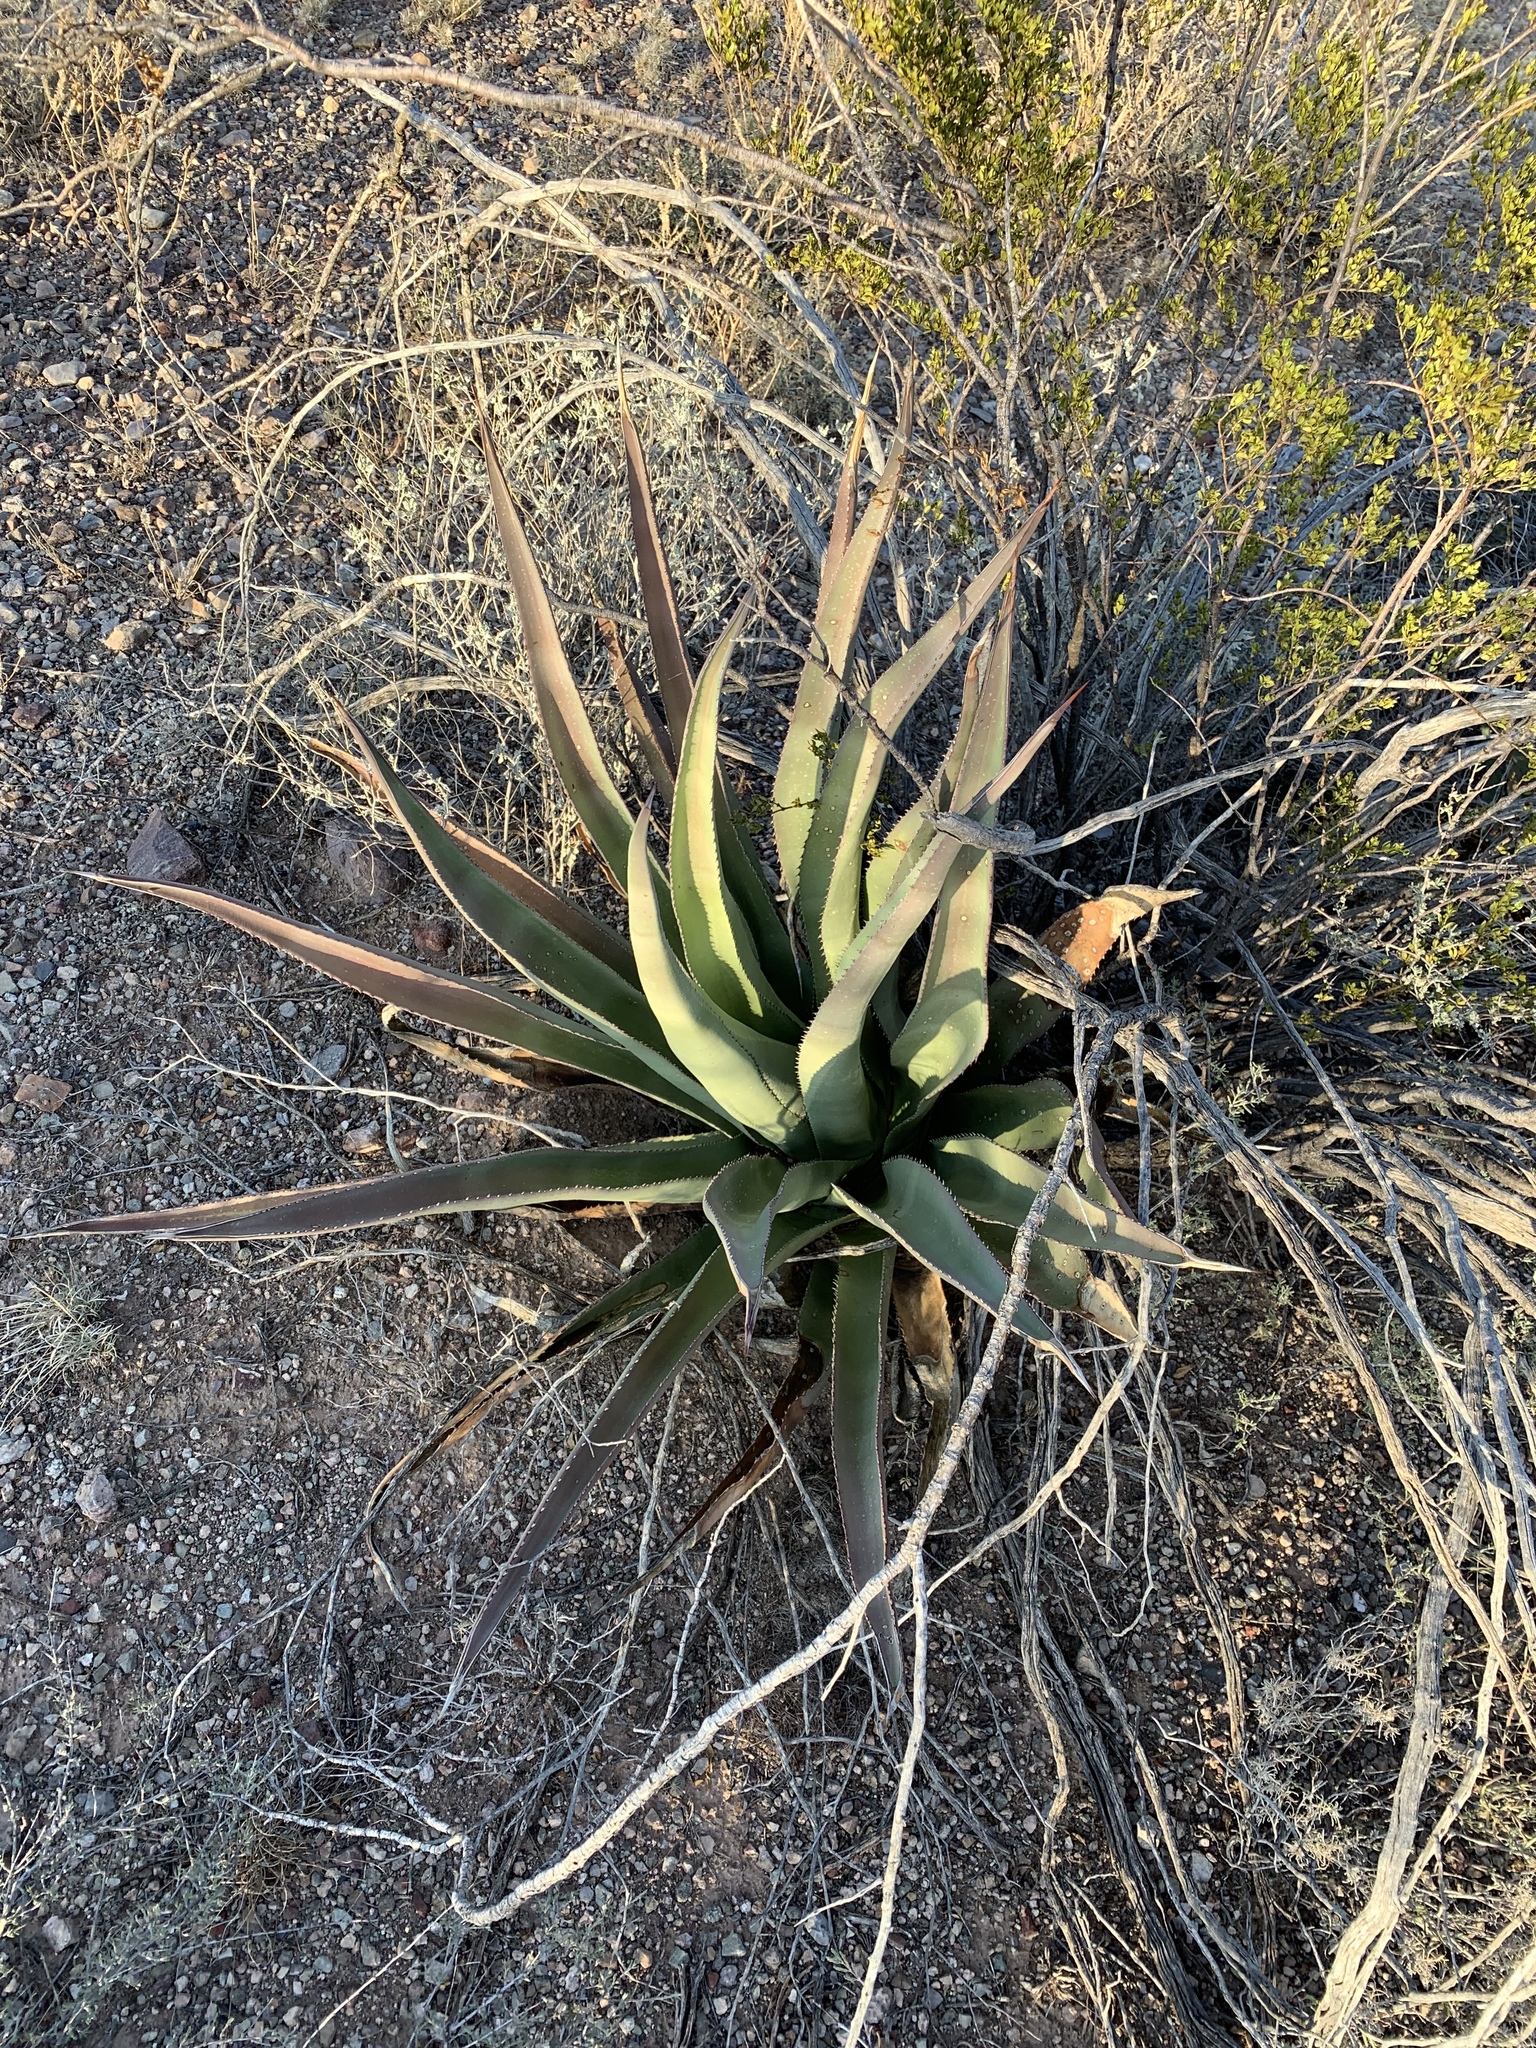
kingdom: Plantae
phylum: Tracheophyta
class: Liliopsida
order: Asparagales
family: Asparagaceae
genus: Agave
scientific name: Agave palmeri
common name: Palmer agave
